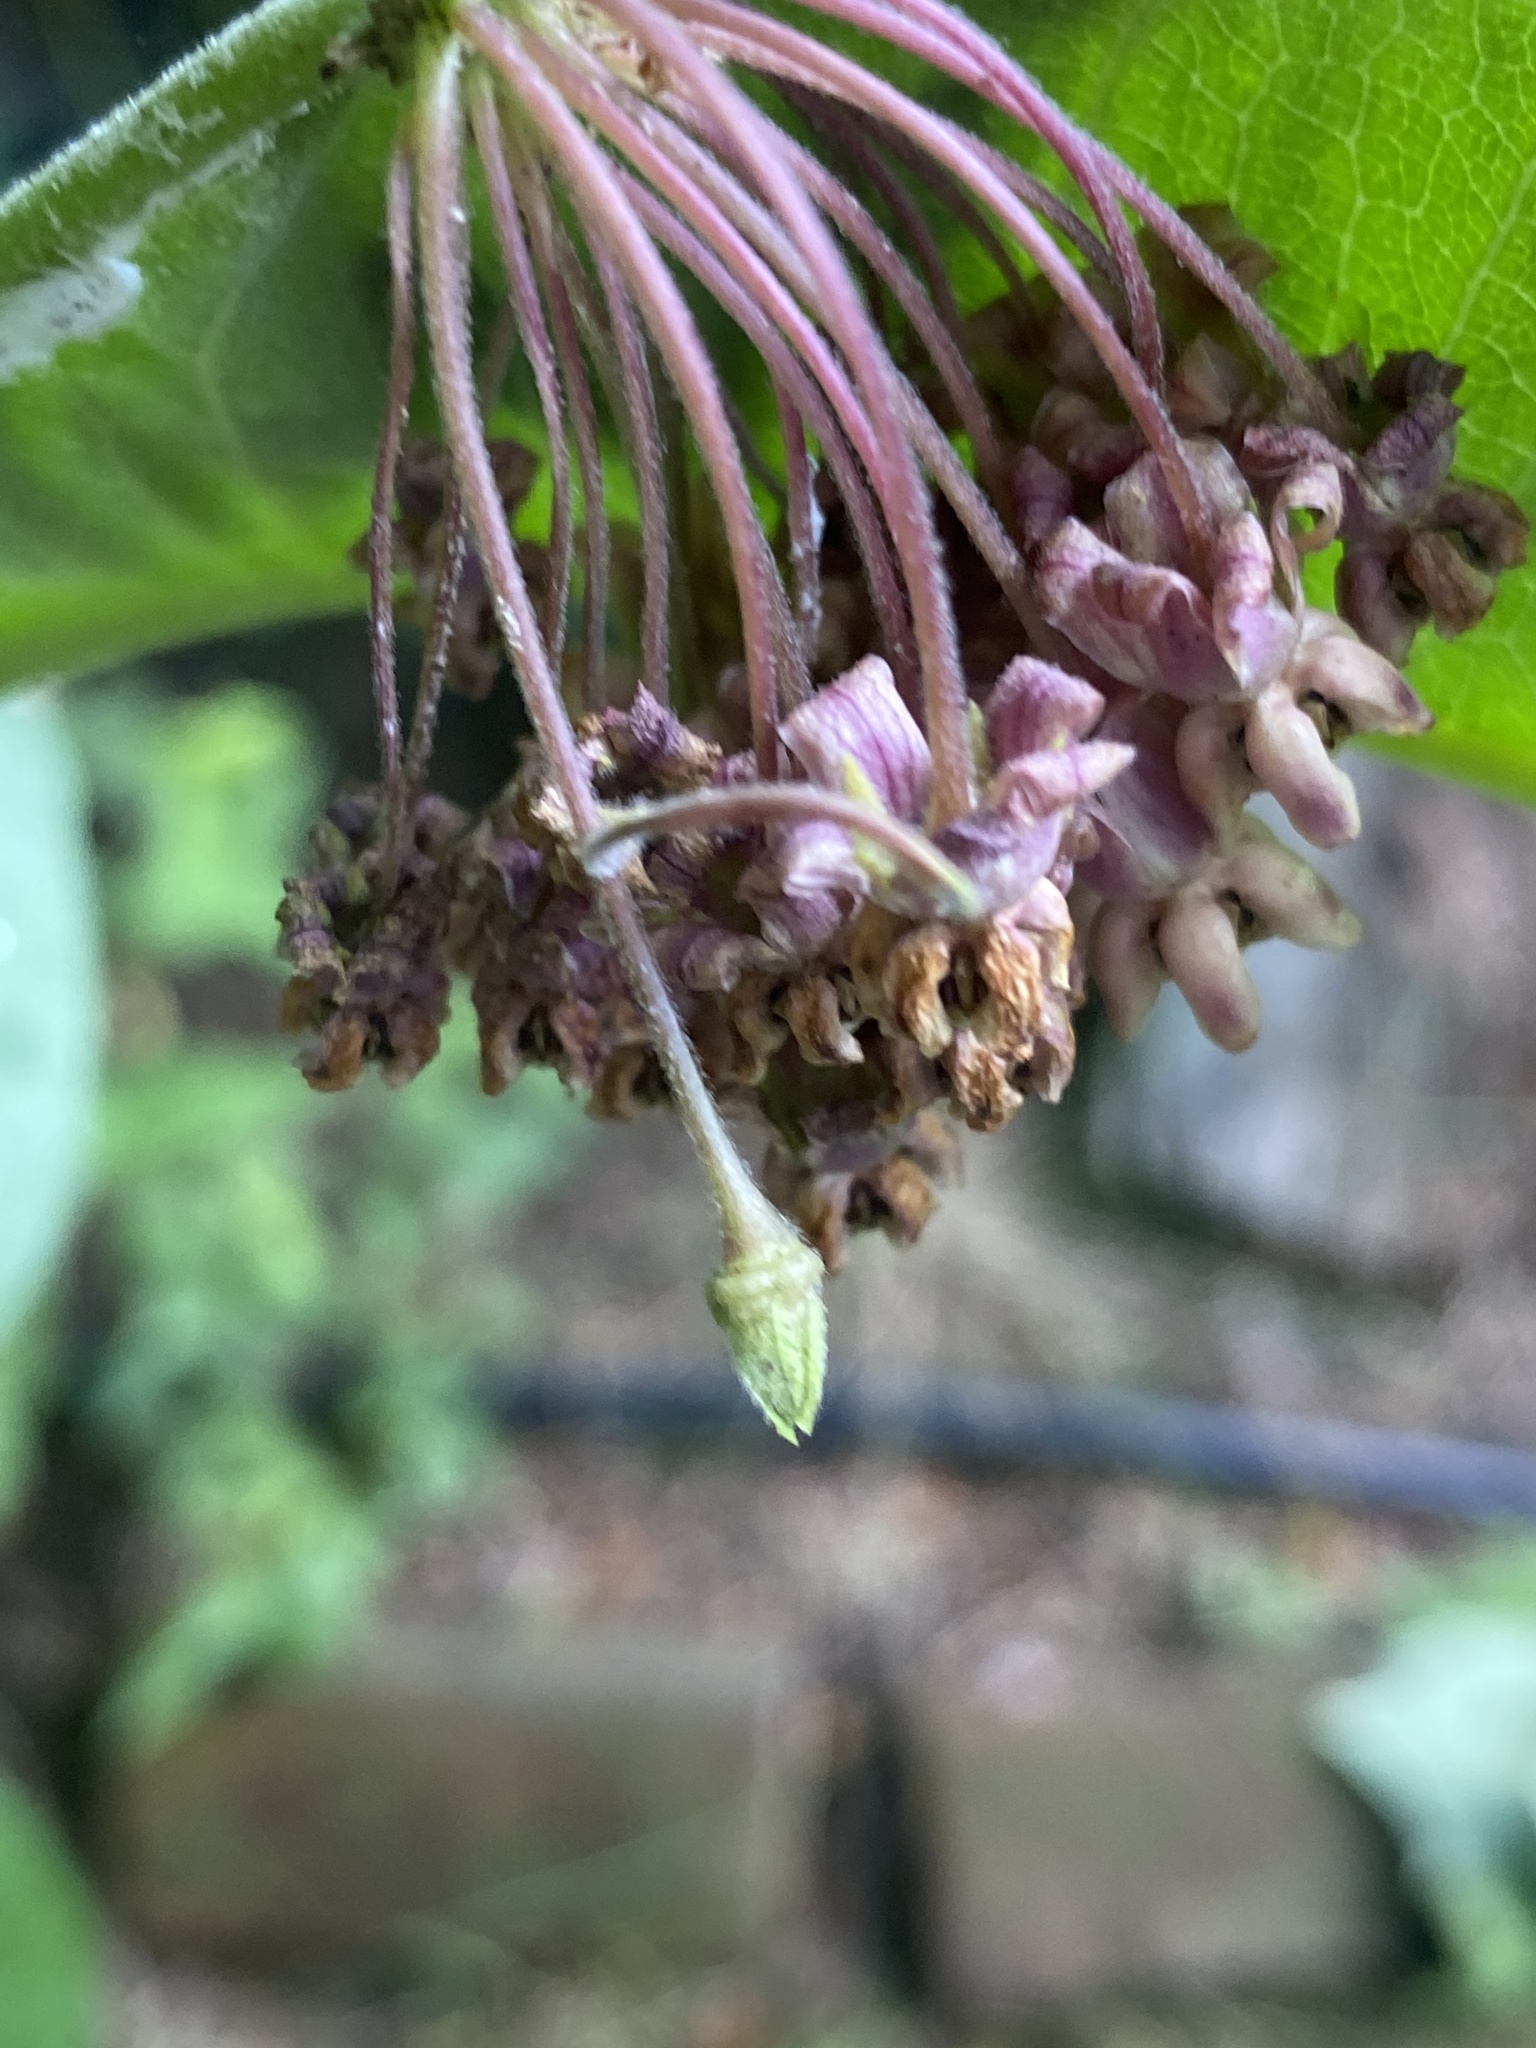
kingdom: Plantae
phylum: Tracheophyta
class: Magnoliopsida
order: Gentianales
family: Apocynaceae
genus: Asclepias
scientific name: Asclepias syriaca
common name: Common milkweed
